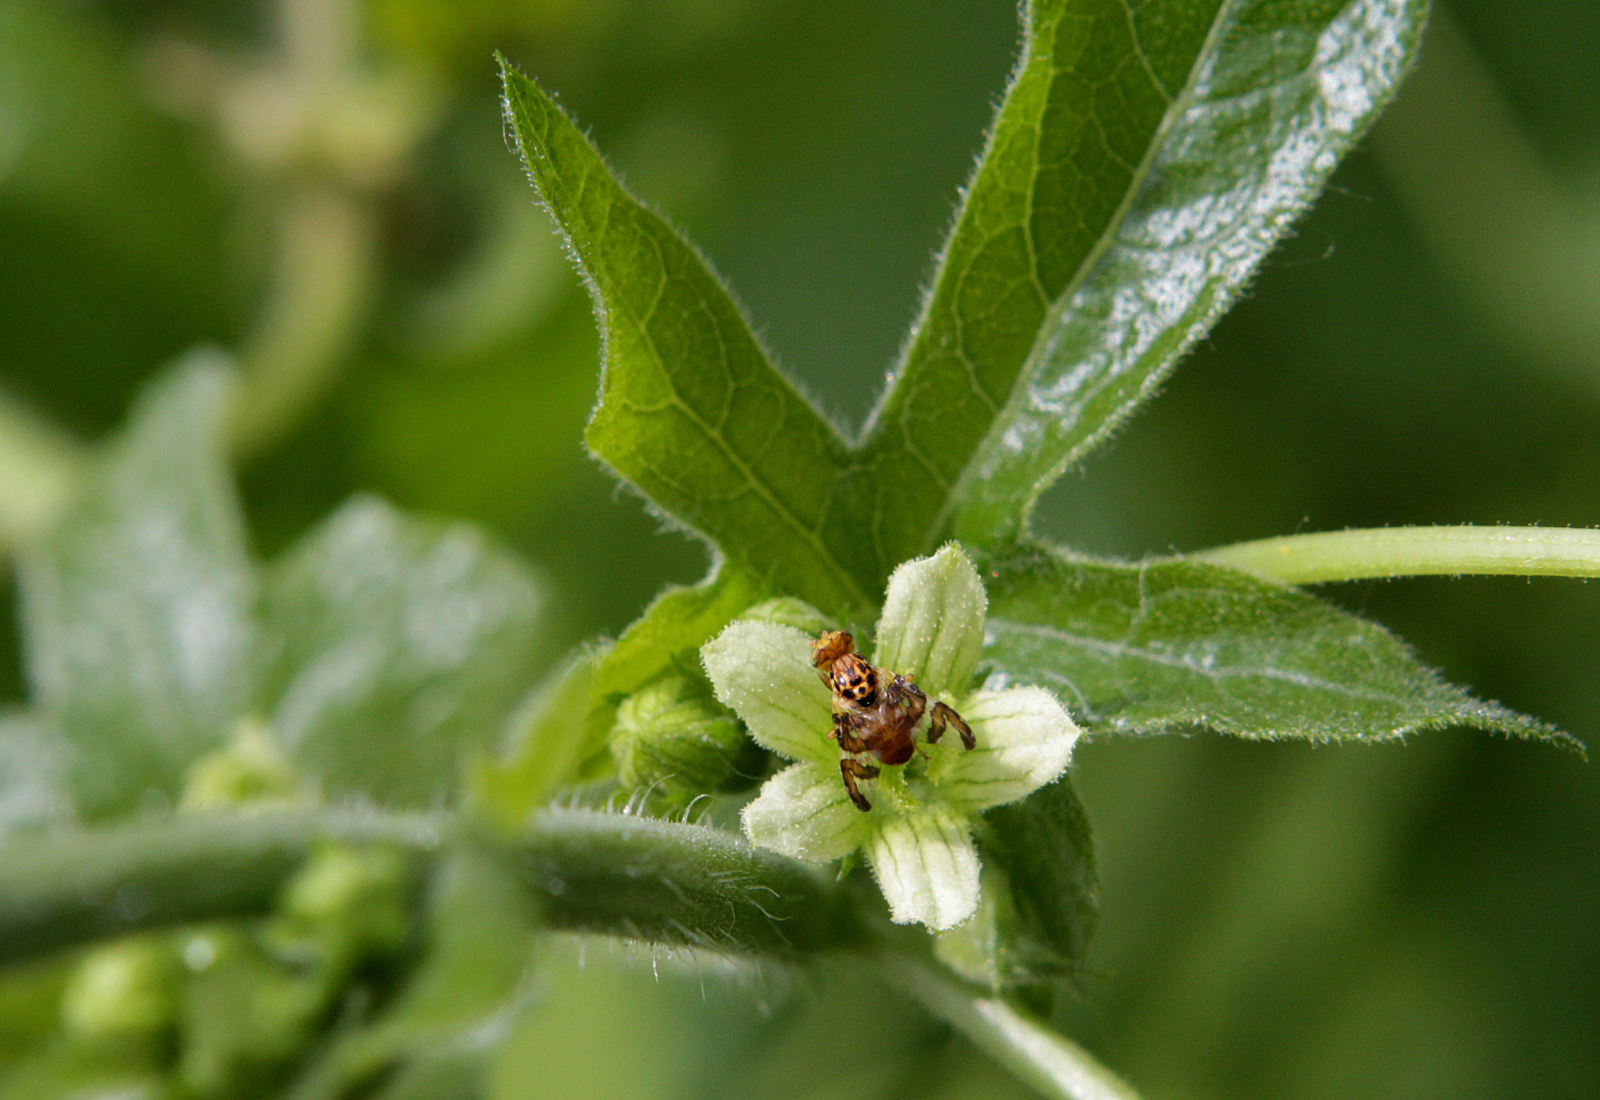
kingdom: Animalia
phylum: Arthropoda
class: Insecta
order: Diptera
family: Tephritidae
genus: Carpomya
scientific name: Carpomya wiedemanni
